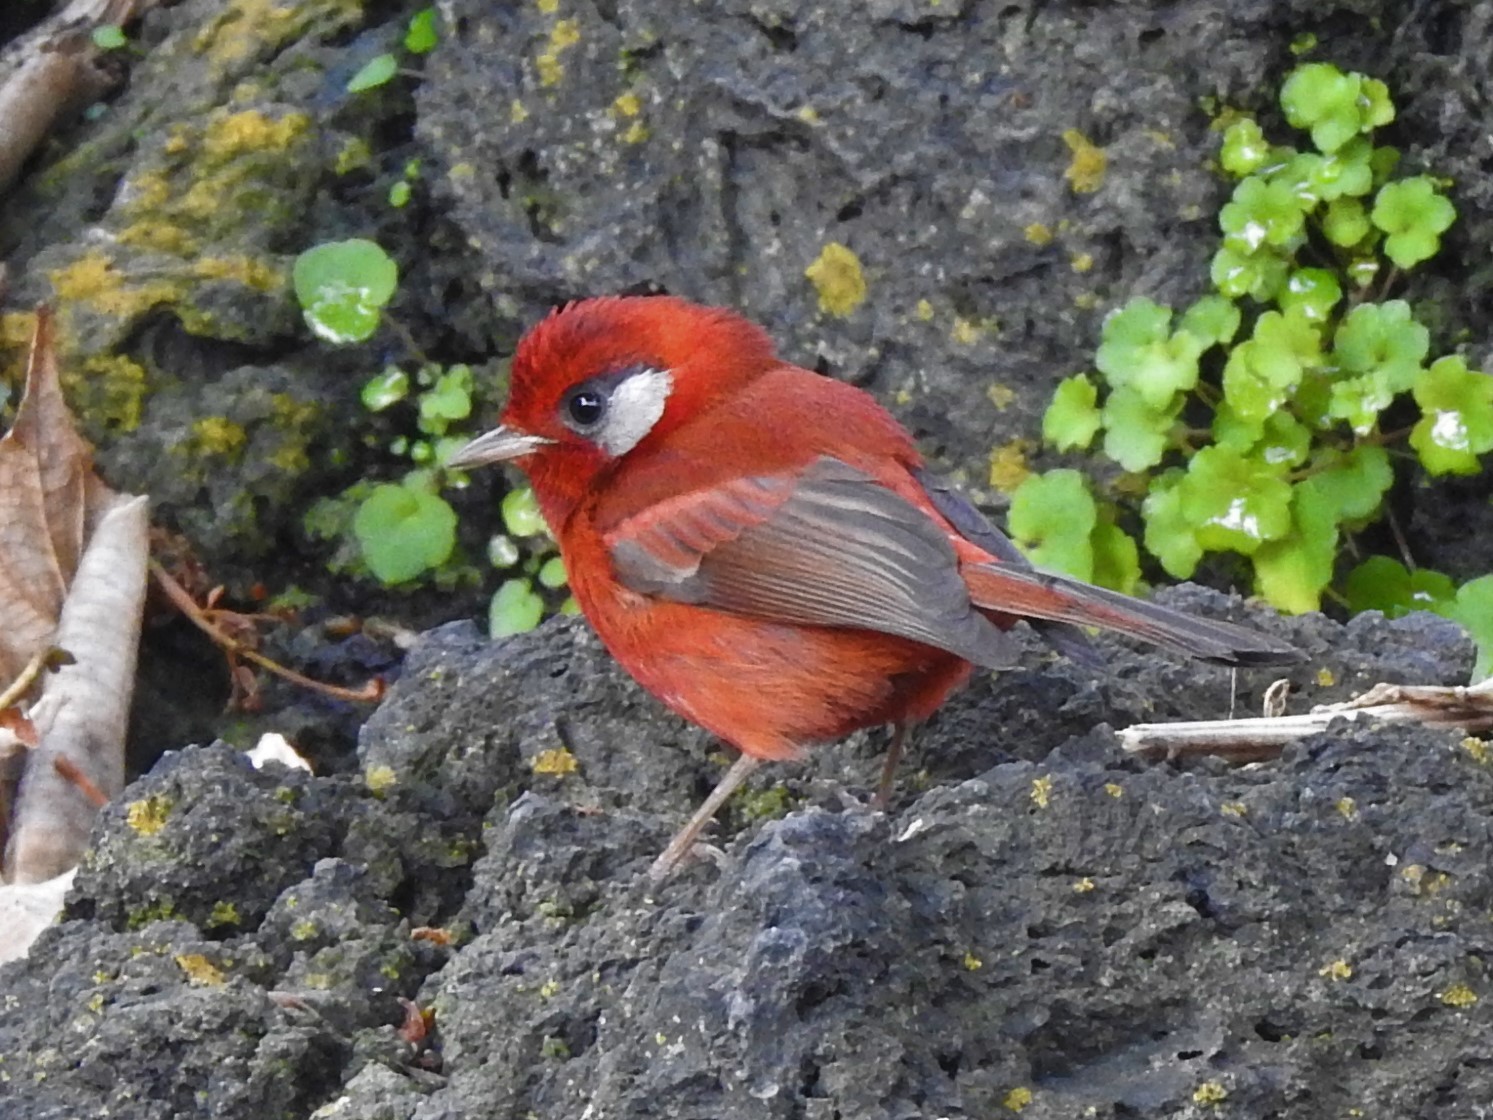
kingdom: Animalia
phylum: Chordata
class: Aves
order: Passeriformes
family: Parulidae
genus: Cardellina
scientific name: Cardellina rubra
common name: Red warbler
